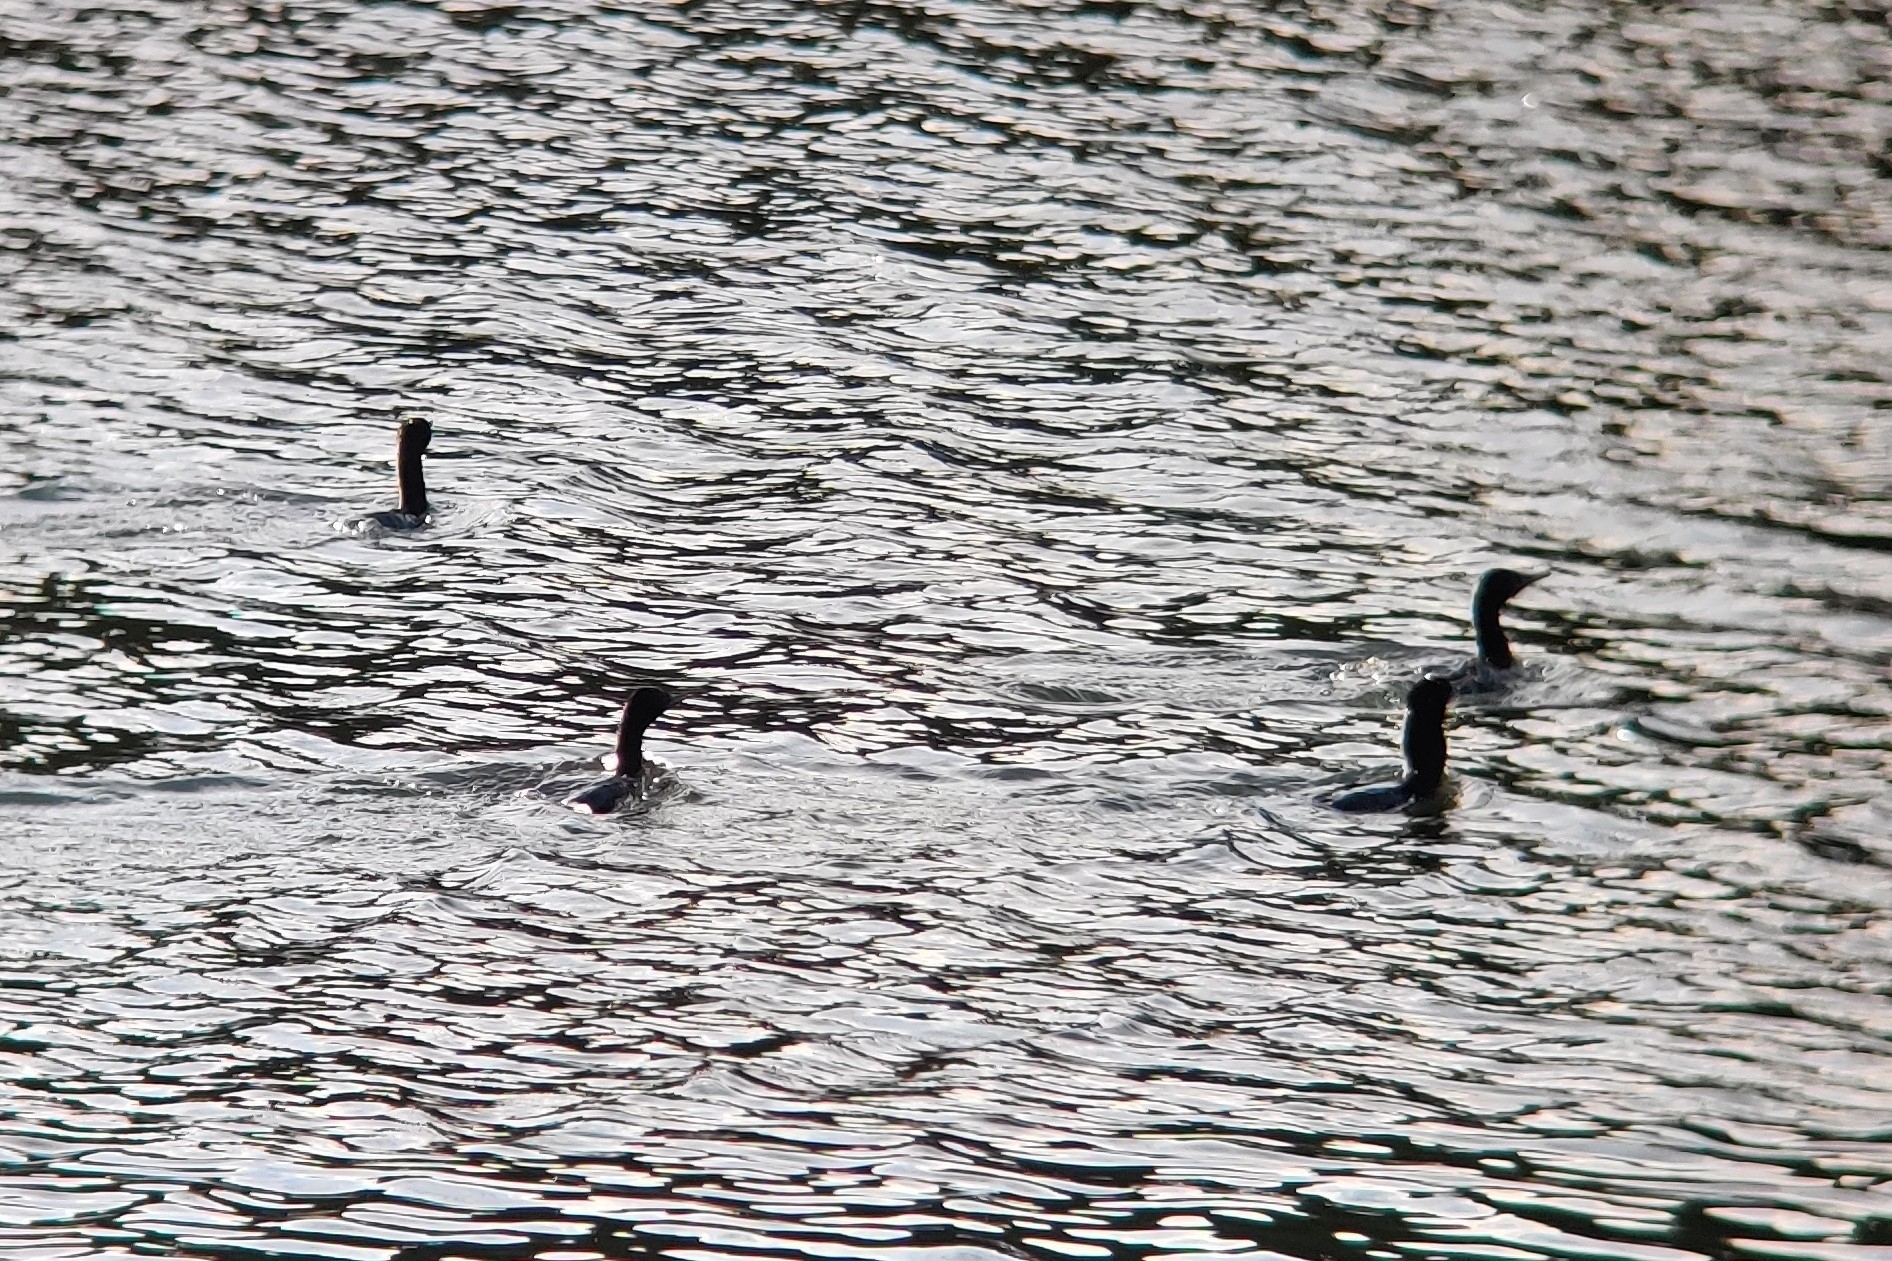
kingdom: Animalia
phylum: Chordata
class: Aves
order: Suliformes
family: Phalacrocoracidae
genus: Phalacrocorax
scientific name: Phalacrocorax sulcirostris
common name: Little black cormorant
